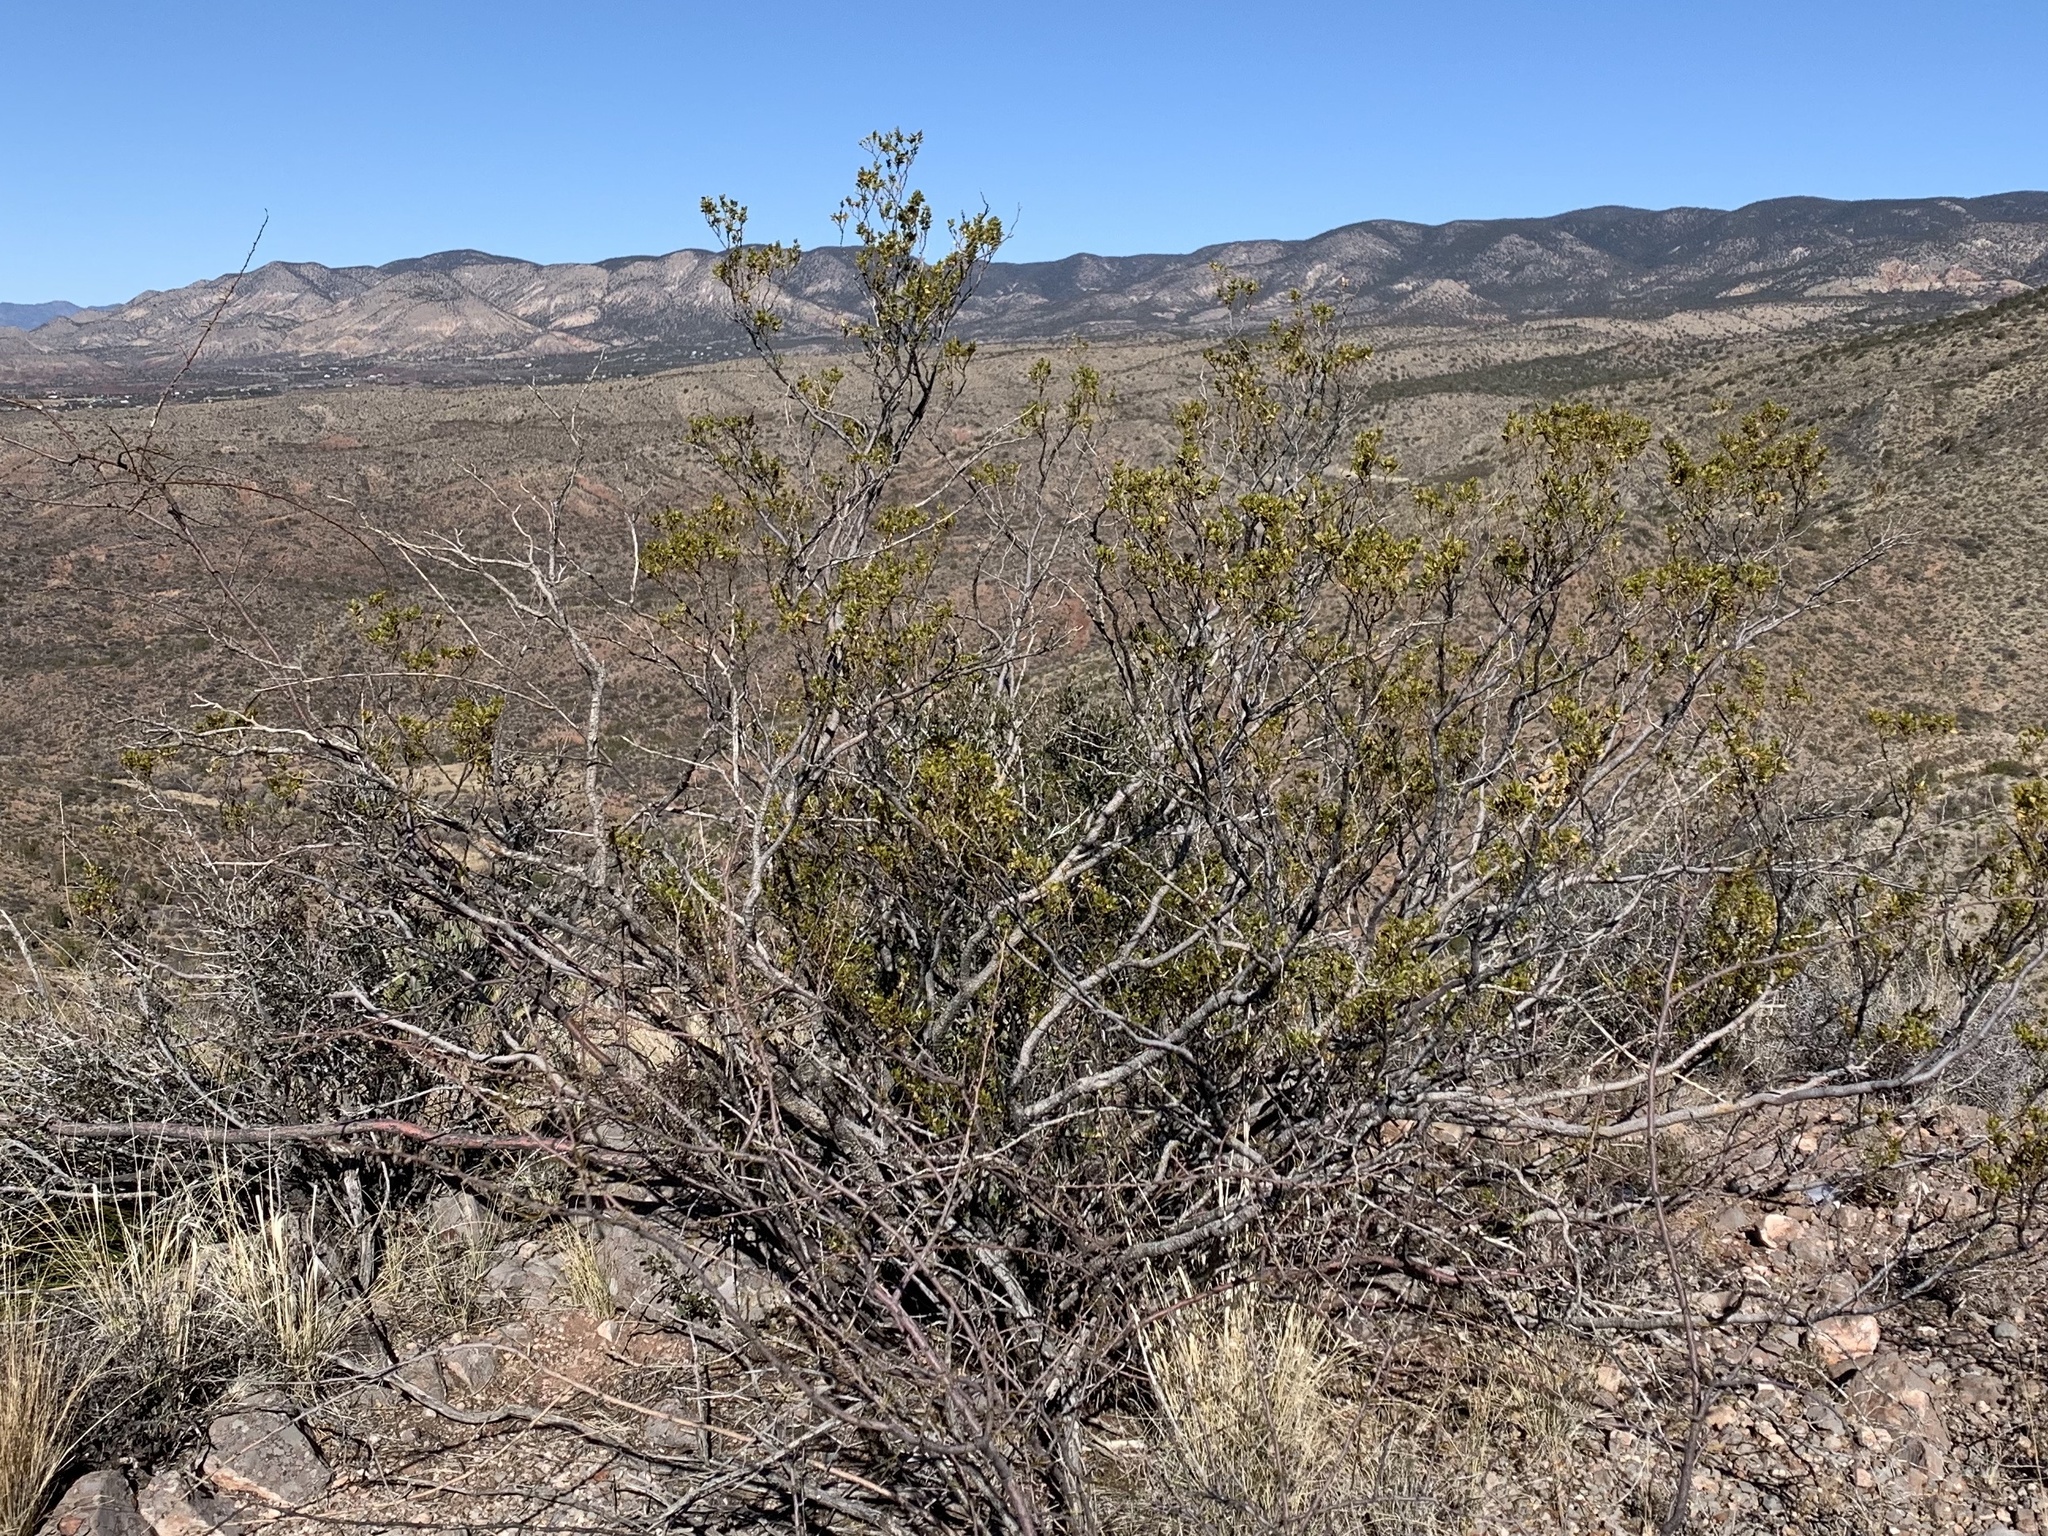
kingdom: Plantae
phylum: Tracheophyta
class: Magnoliopsida
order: Zygophyllales
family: Zygophyllaceae
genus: Larrea
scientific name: Larrea tridentata
